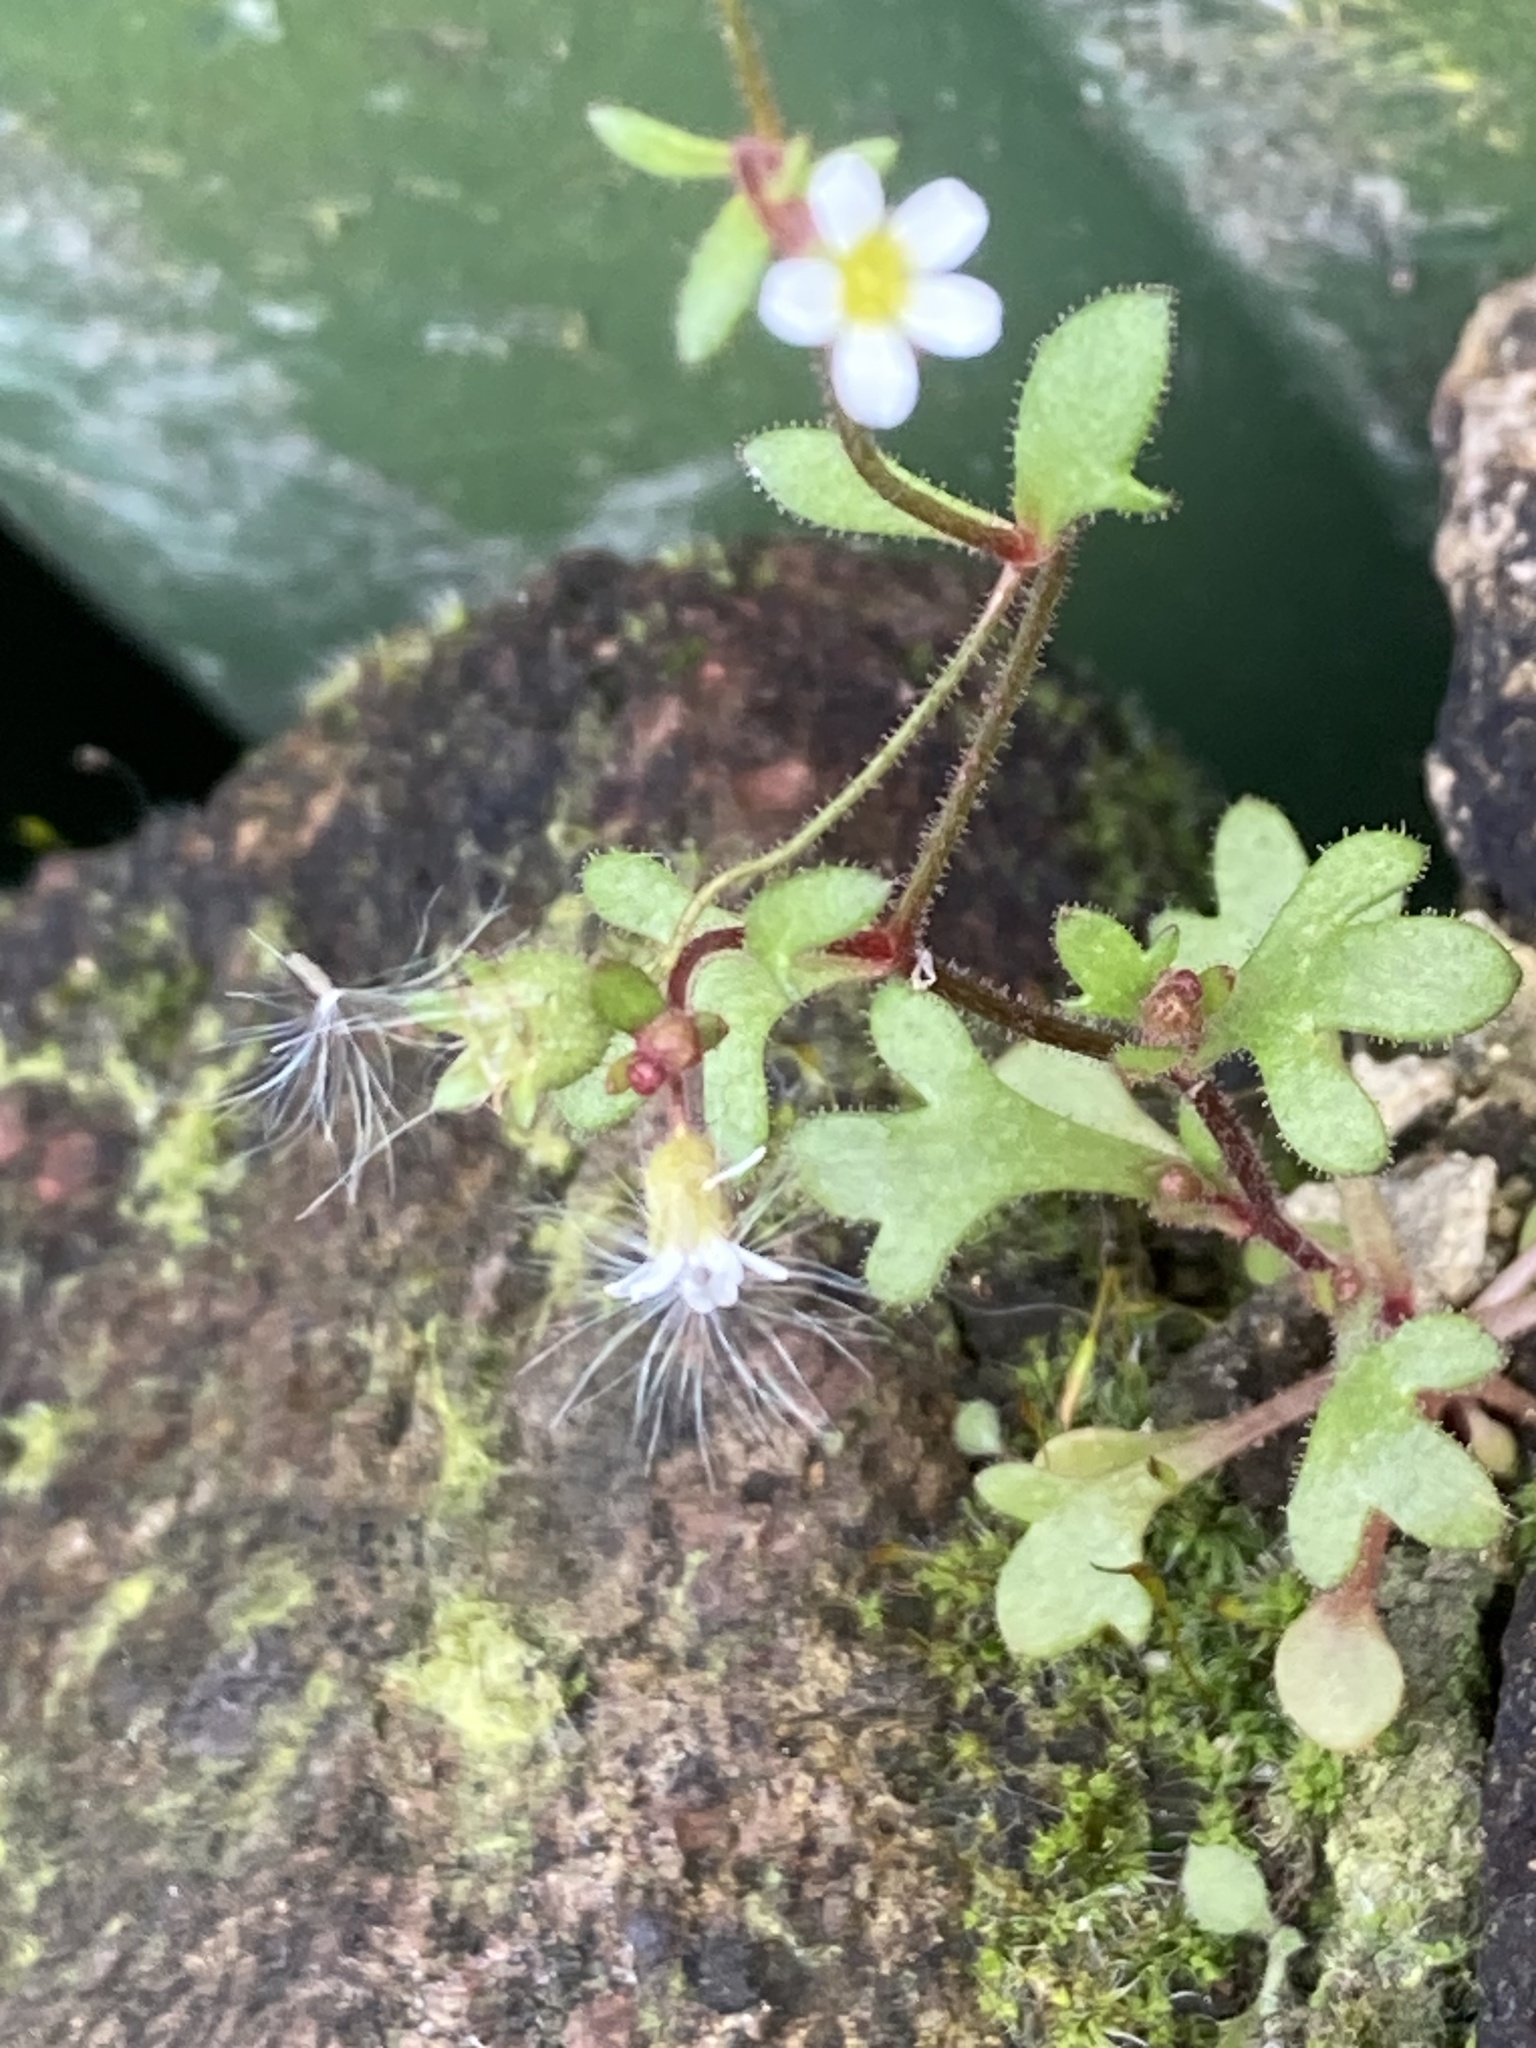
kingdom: Plantae
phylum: Tracheophyta
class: Magnoliopsida
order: Saxifragales
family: Saxifragaceae
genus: Saxifraga
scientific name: Saxifraga tridactylites
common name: Rue-leaved saxifrage
